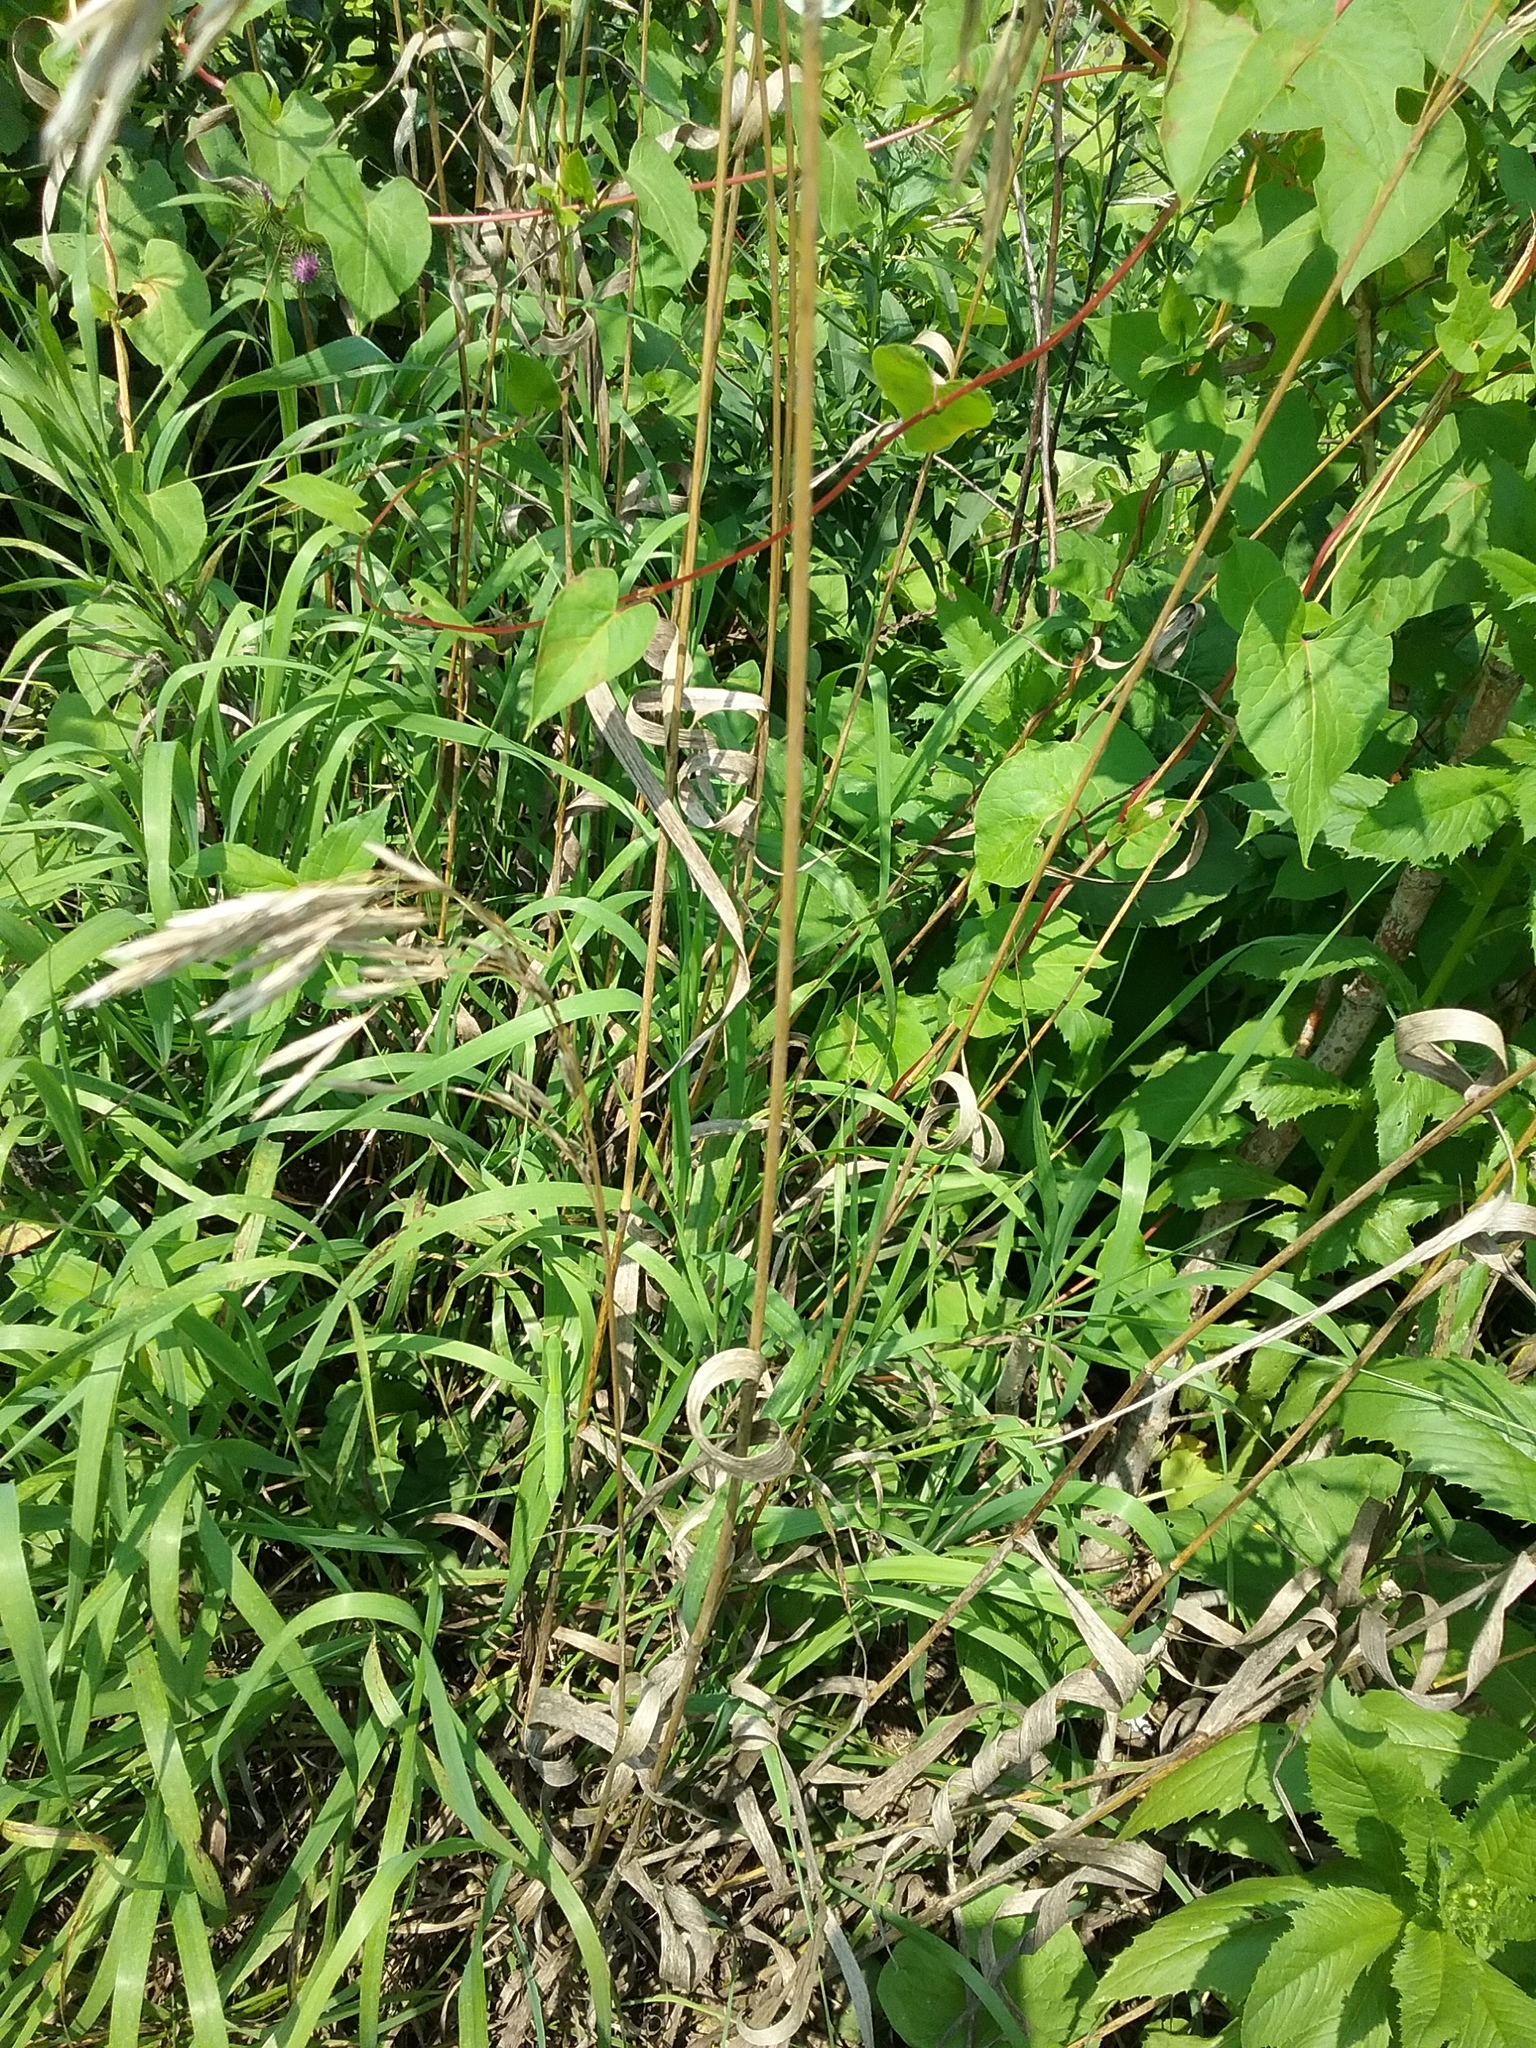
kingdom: Plantae
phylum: Tracheophyta
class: Liliopsida
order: Poales
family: Poaceae
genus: Bromus
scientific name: Bromus inermis
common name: Smooth brome
